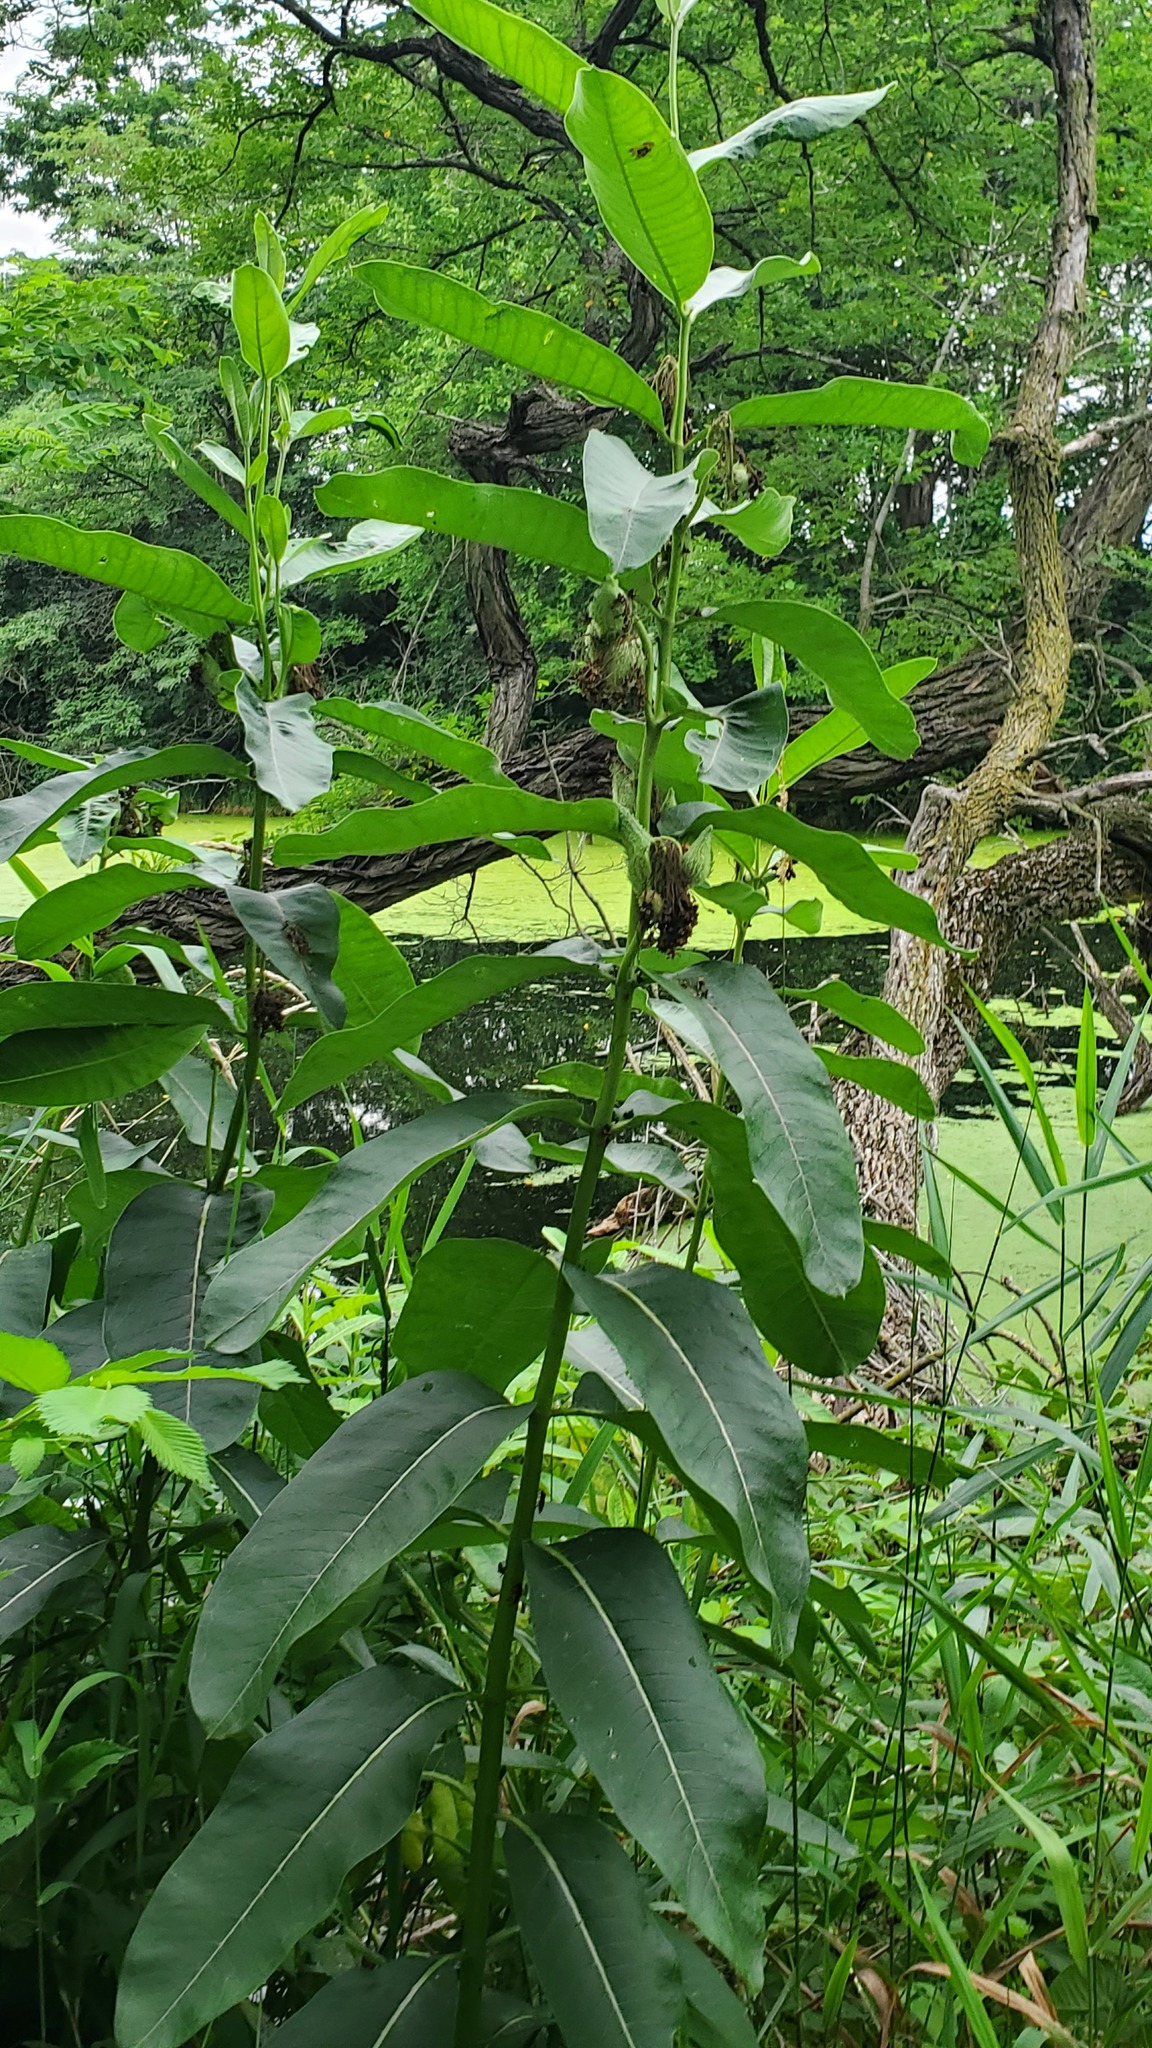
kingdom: Plantae
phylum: Tracheophyta
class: Magnoliopsida
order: Gentianales
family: Apocynaceae
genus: Asclepias
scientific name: Asclepias syriaca
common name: Common milkweed
